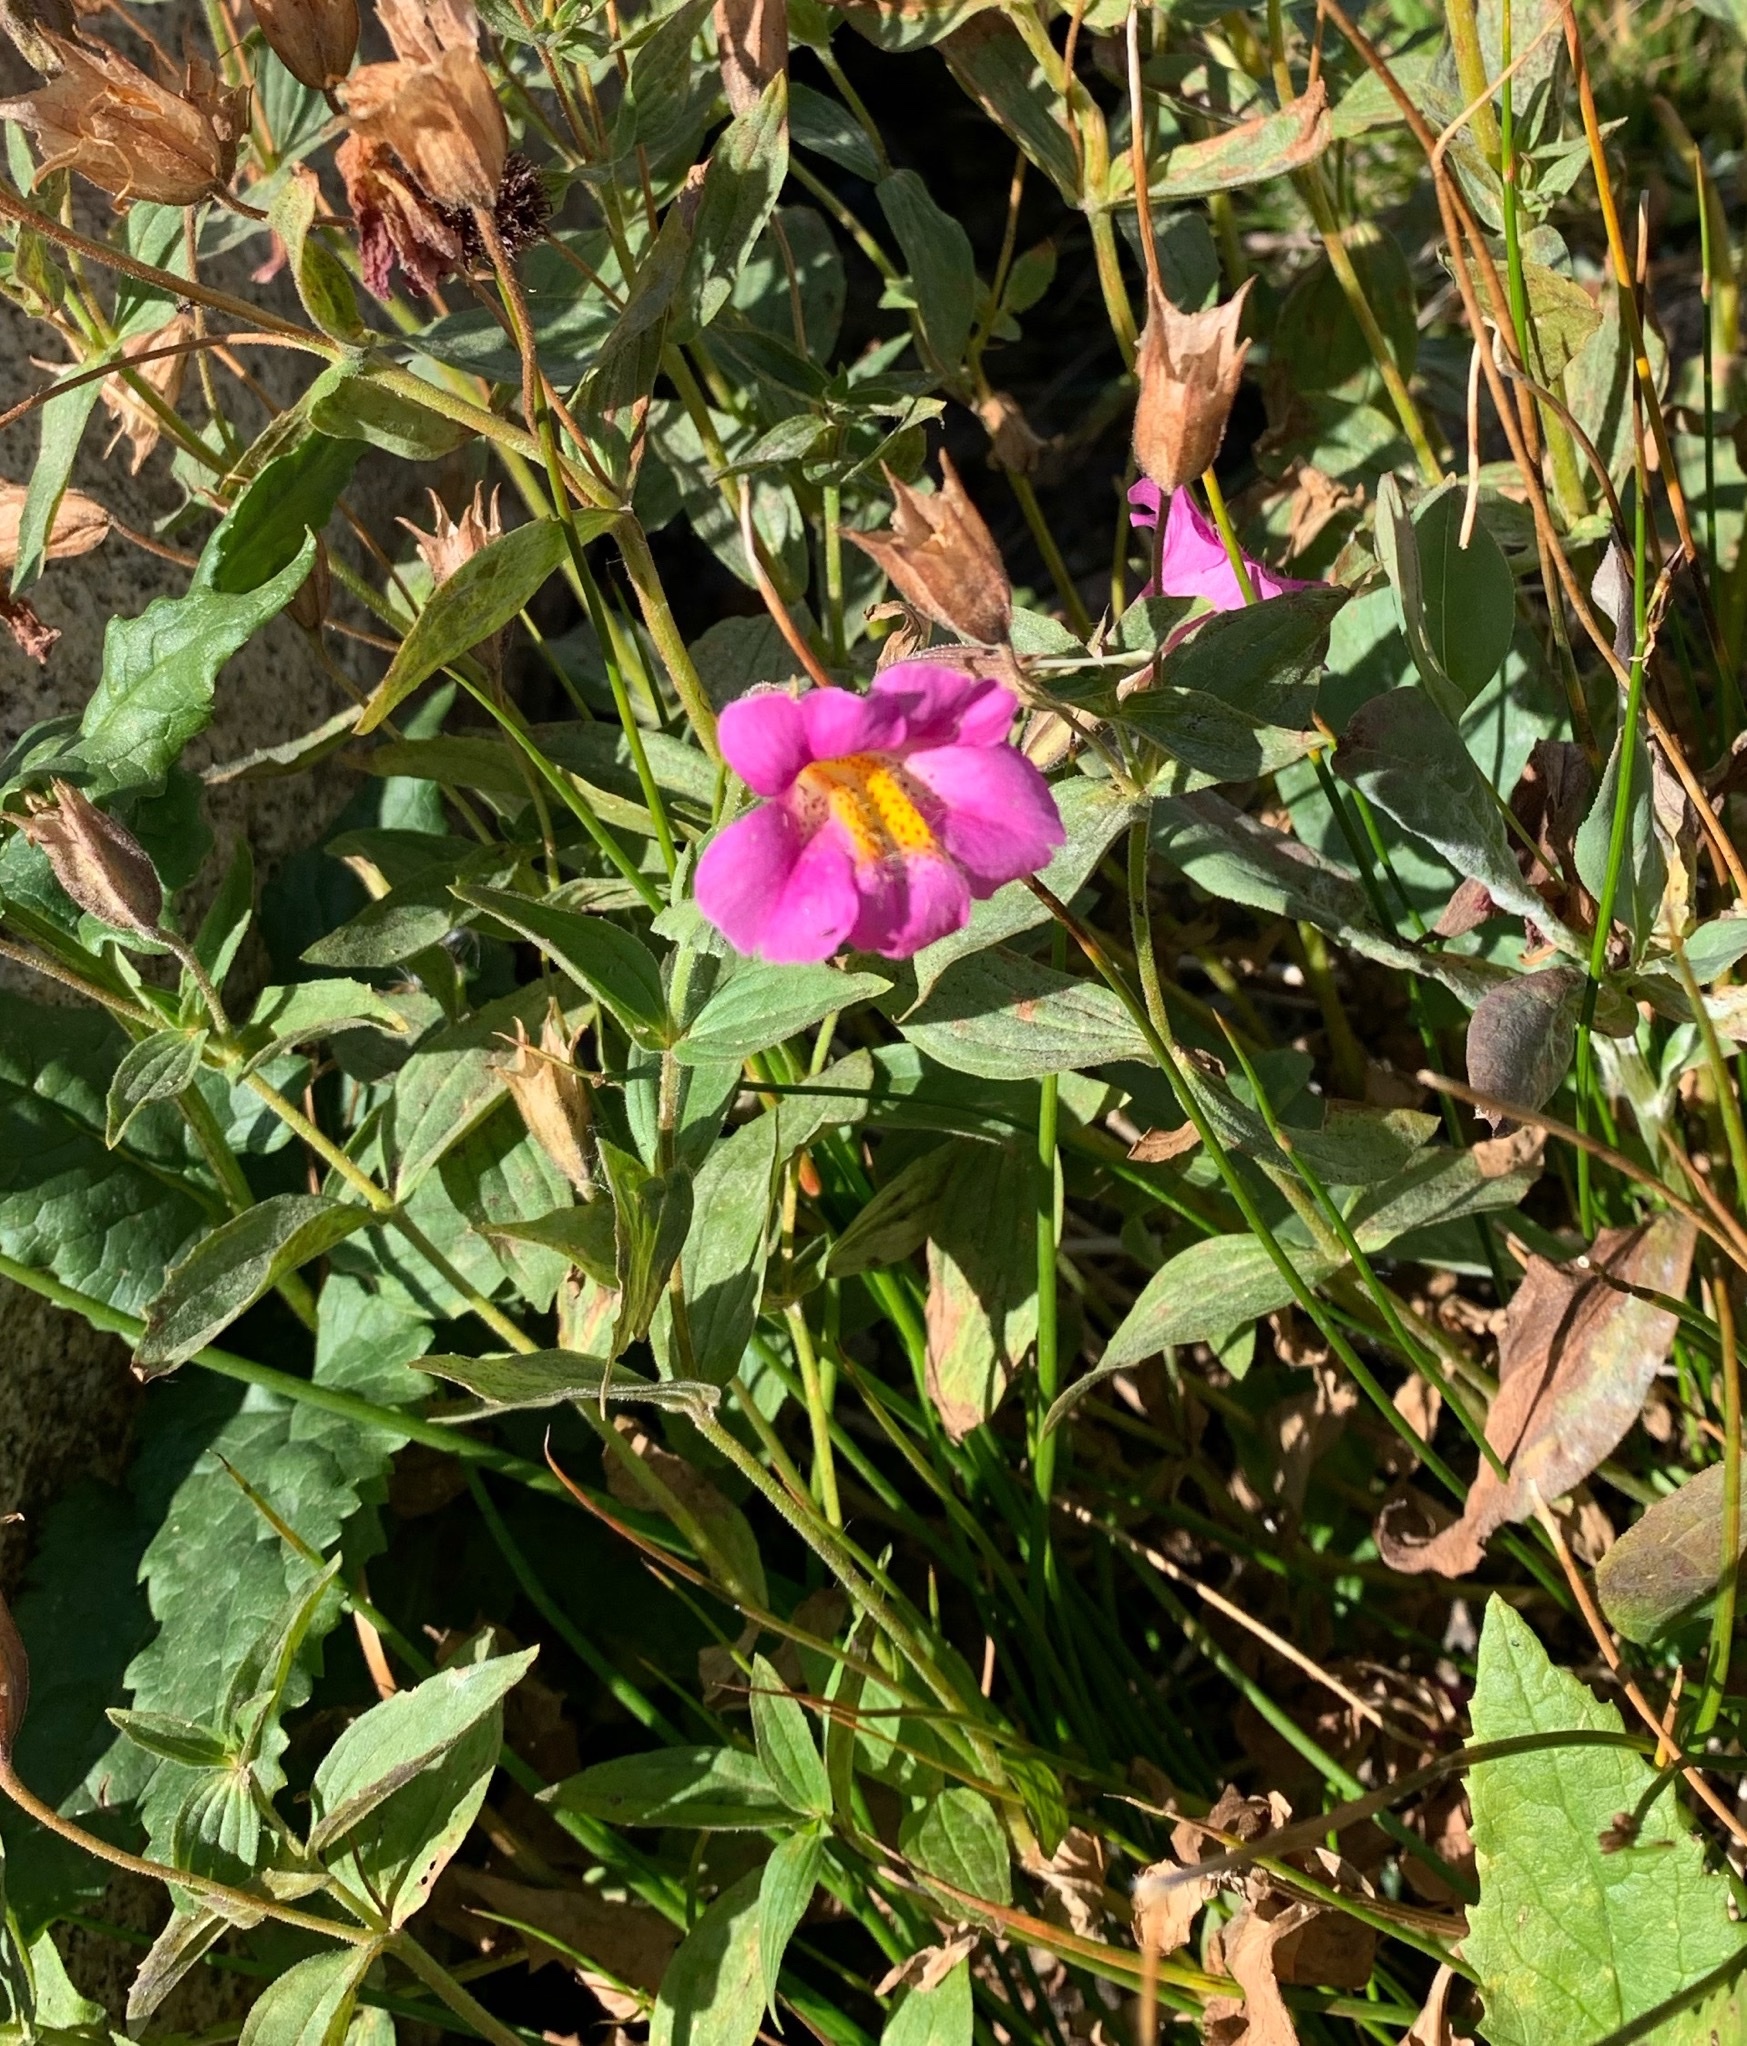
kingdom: Plantae
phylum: Tracheophyta
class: Magnoliopsida
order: Lamiales
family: Phrymaceae
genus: Erythranthe
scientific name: Erythranthe lewisii
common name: Lewis's monkey-flower
